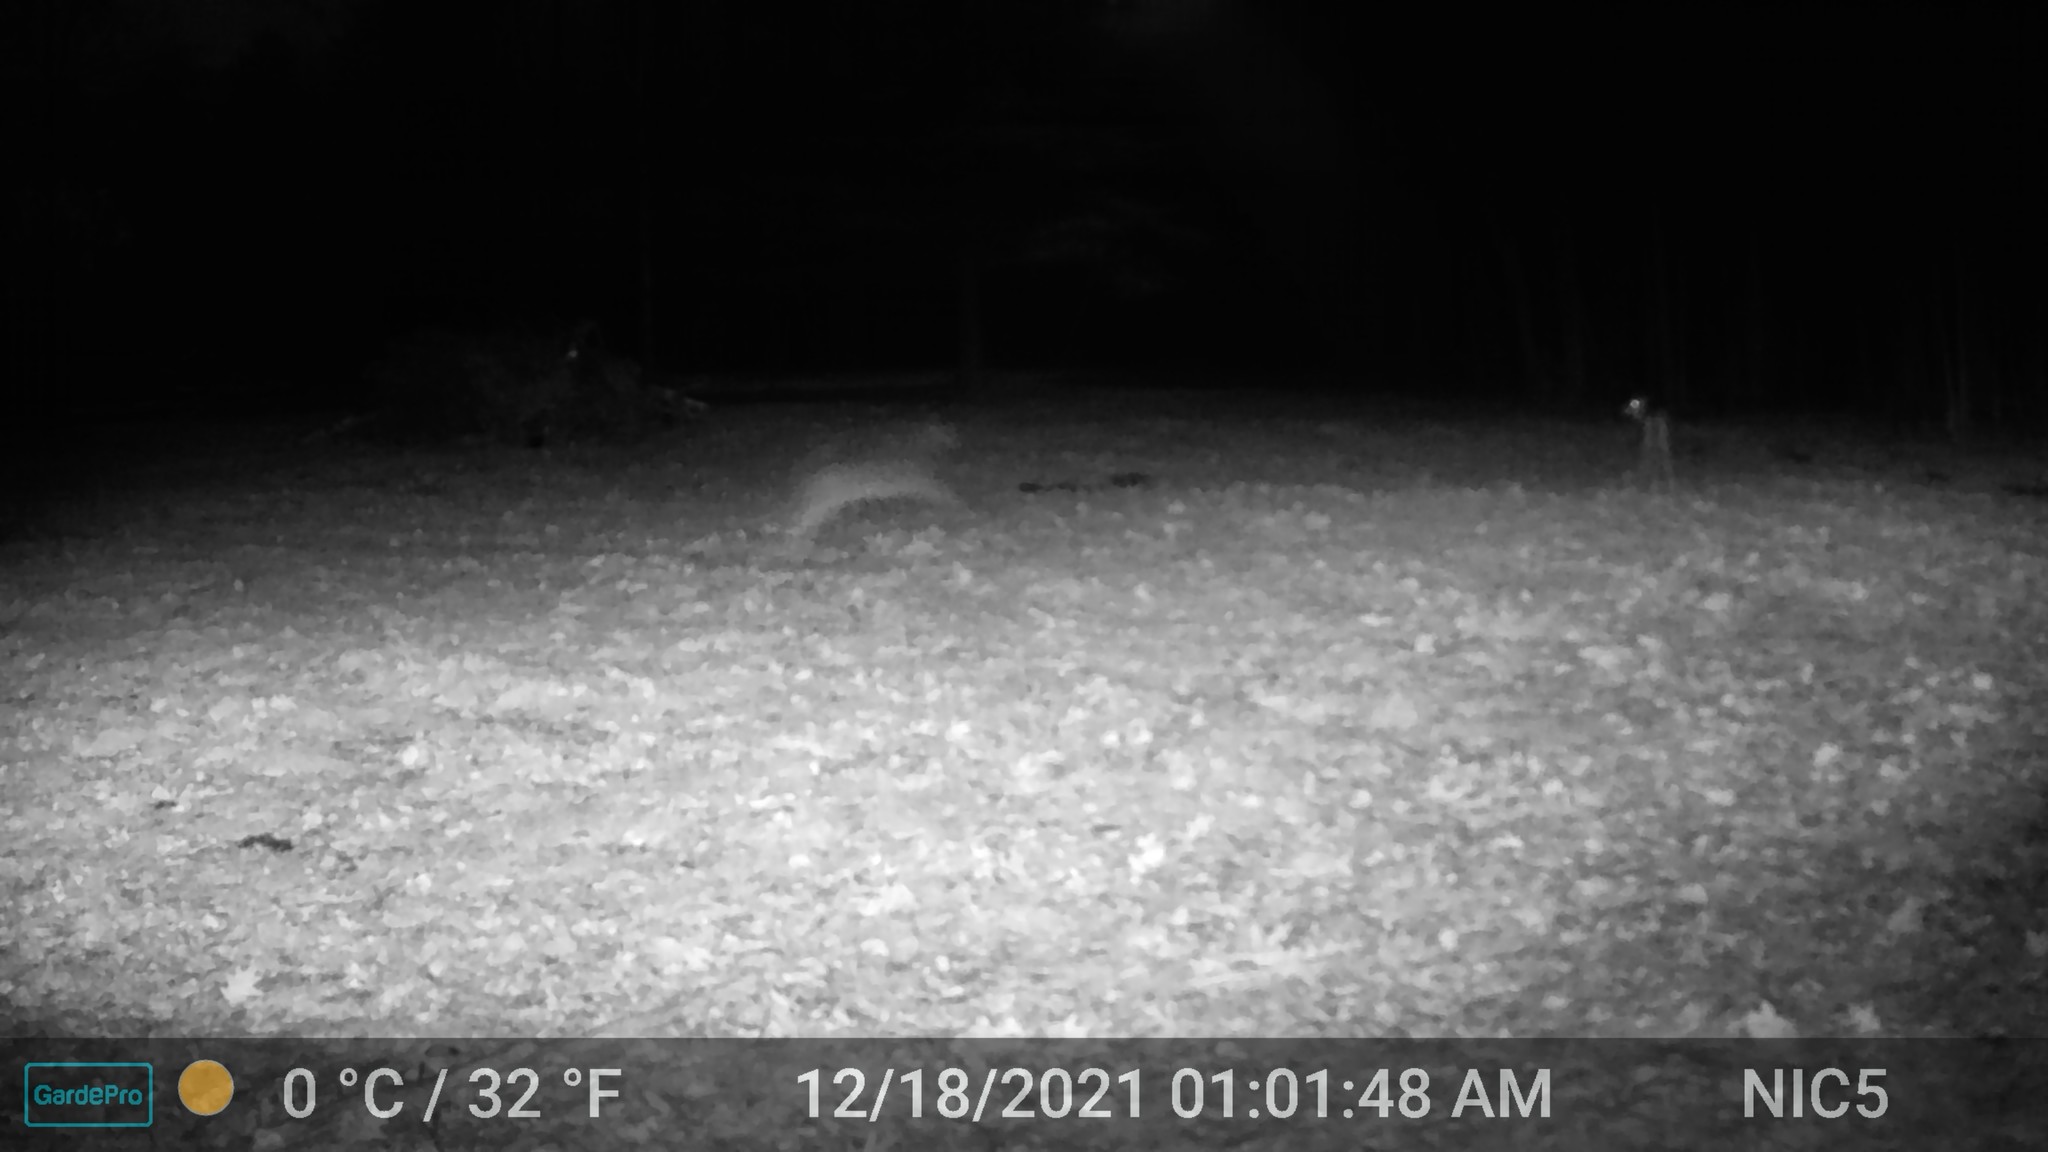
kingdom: Animalia
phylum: Chordata
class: Mammalia
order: Artiodactyla
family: Cervidae
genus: Odocoileus
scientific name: Odocoileus virginianus
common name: White-tailed deer
